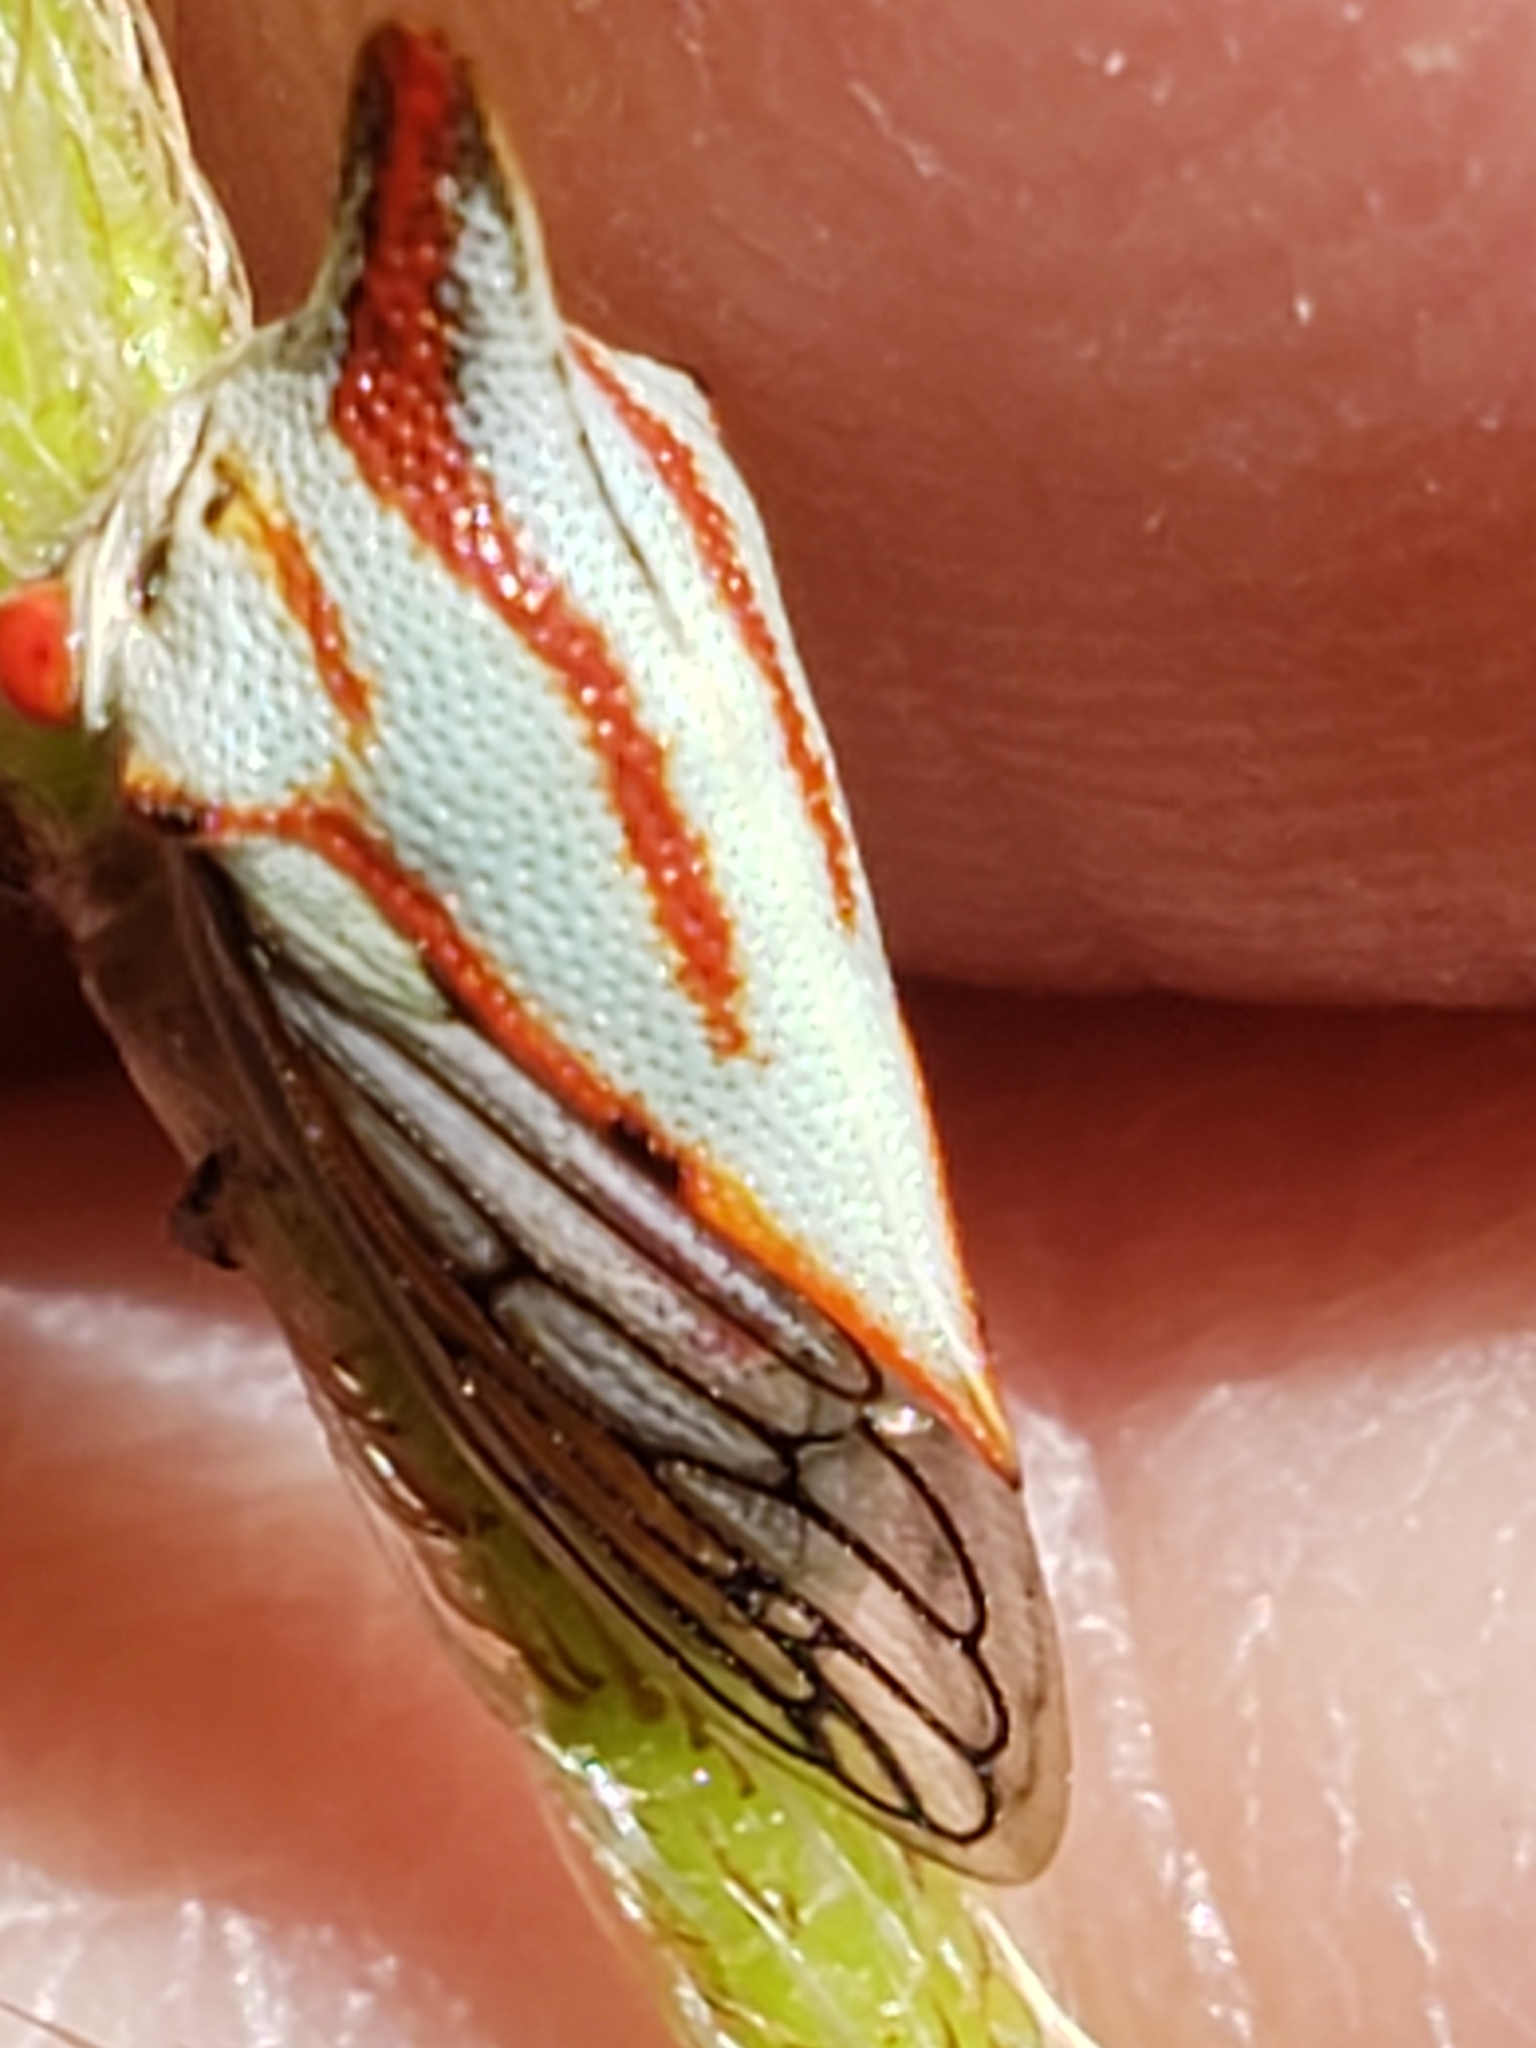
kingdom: Animalia
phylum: Arthropoda
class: Insecta
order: Hemiptera
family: Membracidae
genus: Platycotis
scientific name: Platycotis vittatus
